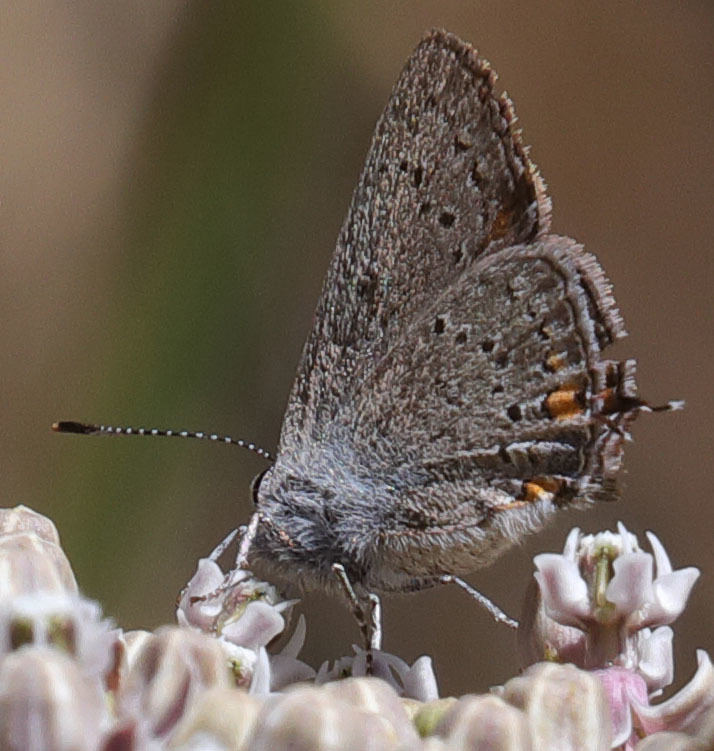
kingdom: Animalia
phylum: Arthropoda
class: Insecta
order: Lepidoptera
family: Lycaenidae
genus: Strymon
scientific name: Strymon acadica
